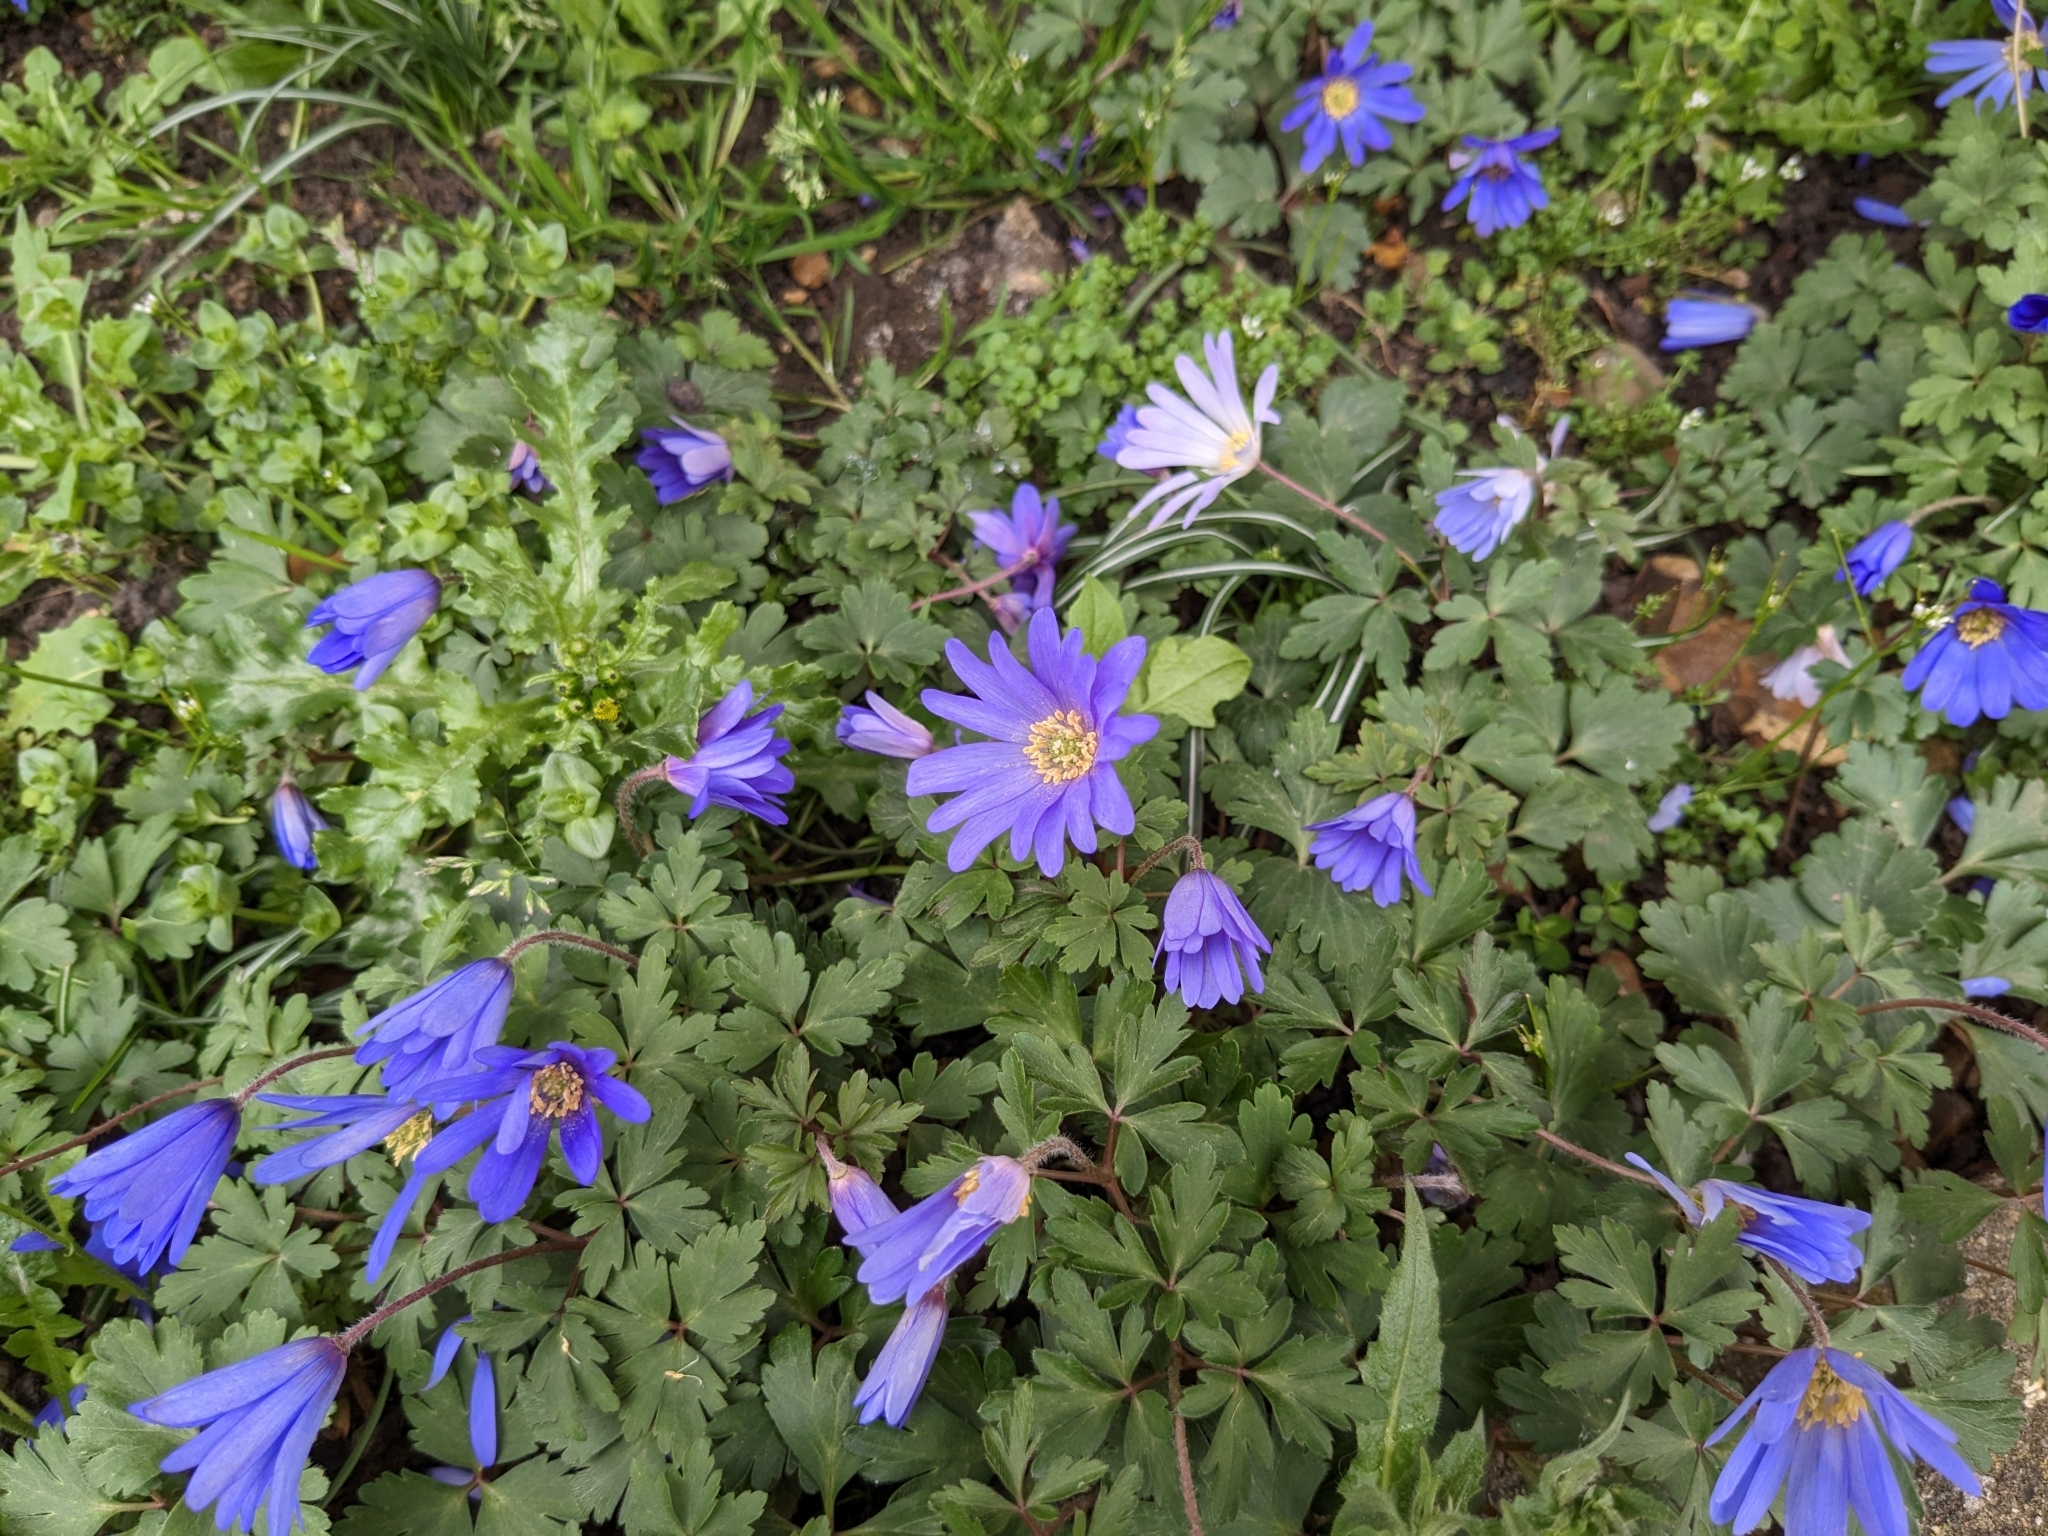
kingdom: Plantae
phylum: Tracheophyta
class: Magnoliopsida
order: Ranunculales
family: Ranunculaceae
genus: Anemone
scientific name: Anemone blanda
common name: Balkan anemone
